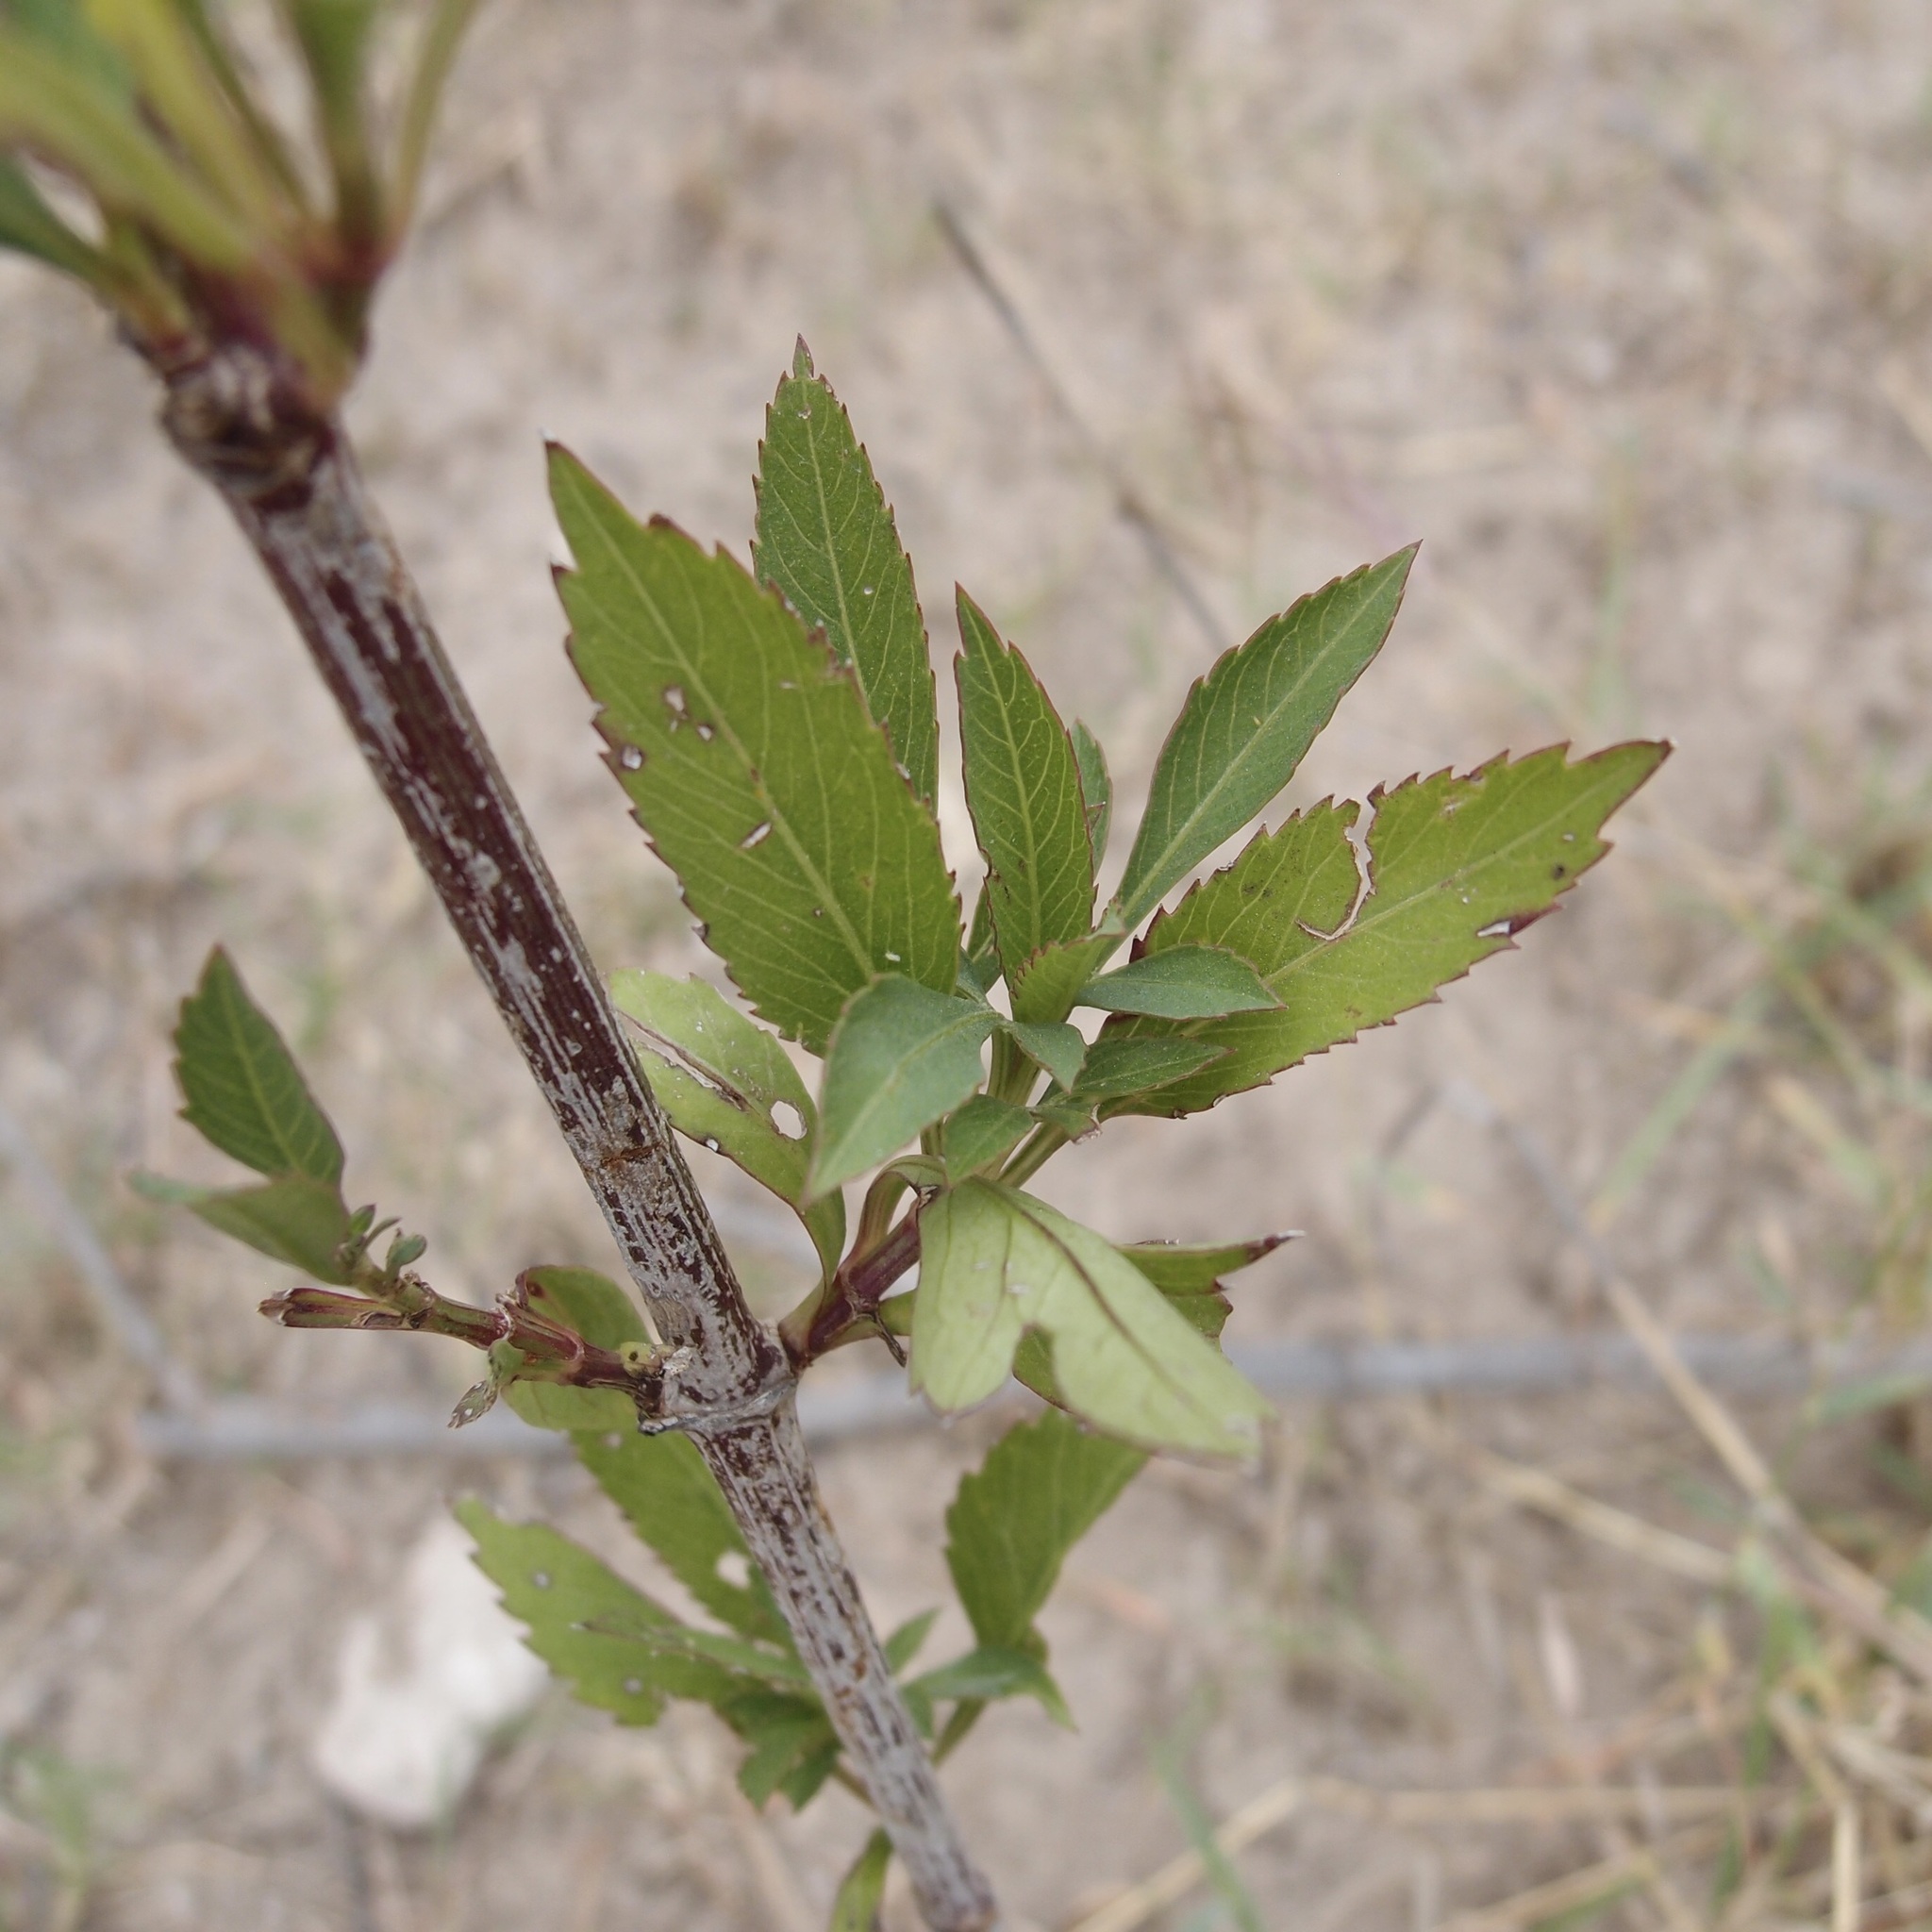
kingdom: Plantae
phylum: Tracheophyta
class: Magnoliopsida
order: Asterales
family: Asteraceae
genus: Bidens
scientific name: Bidens sambucifolia
